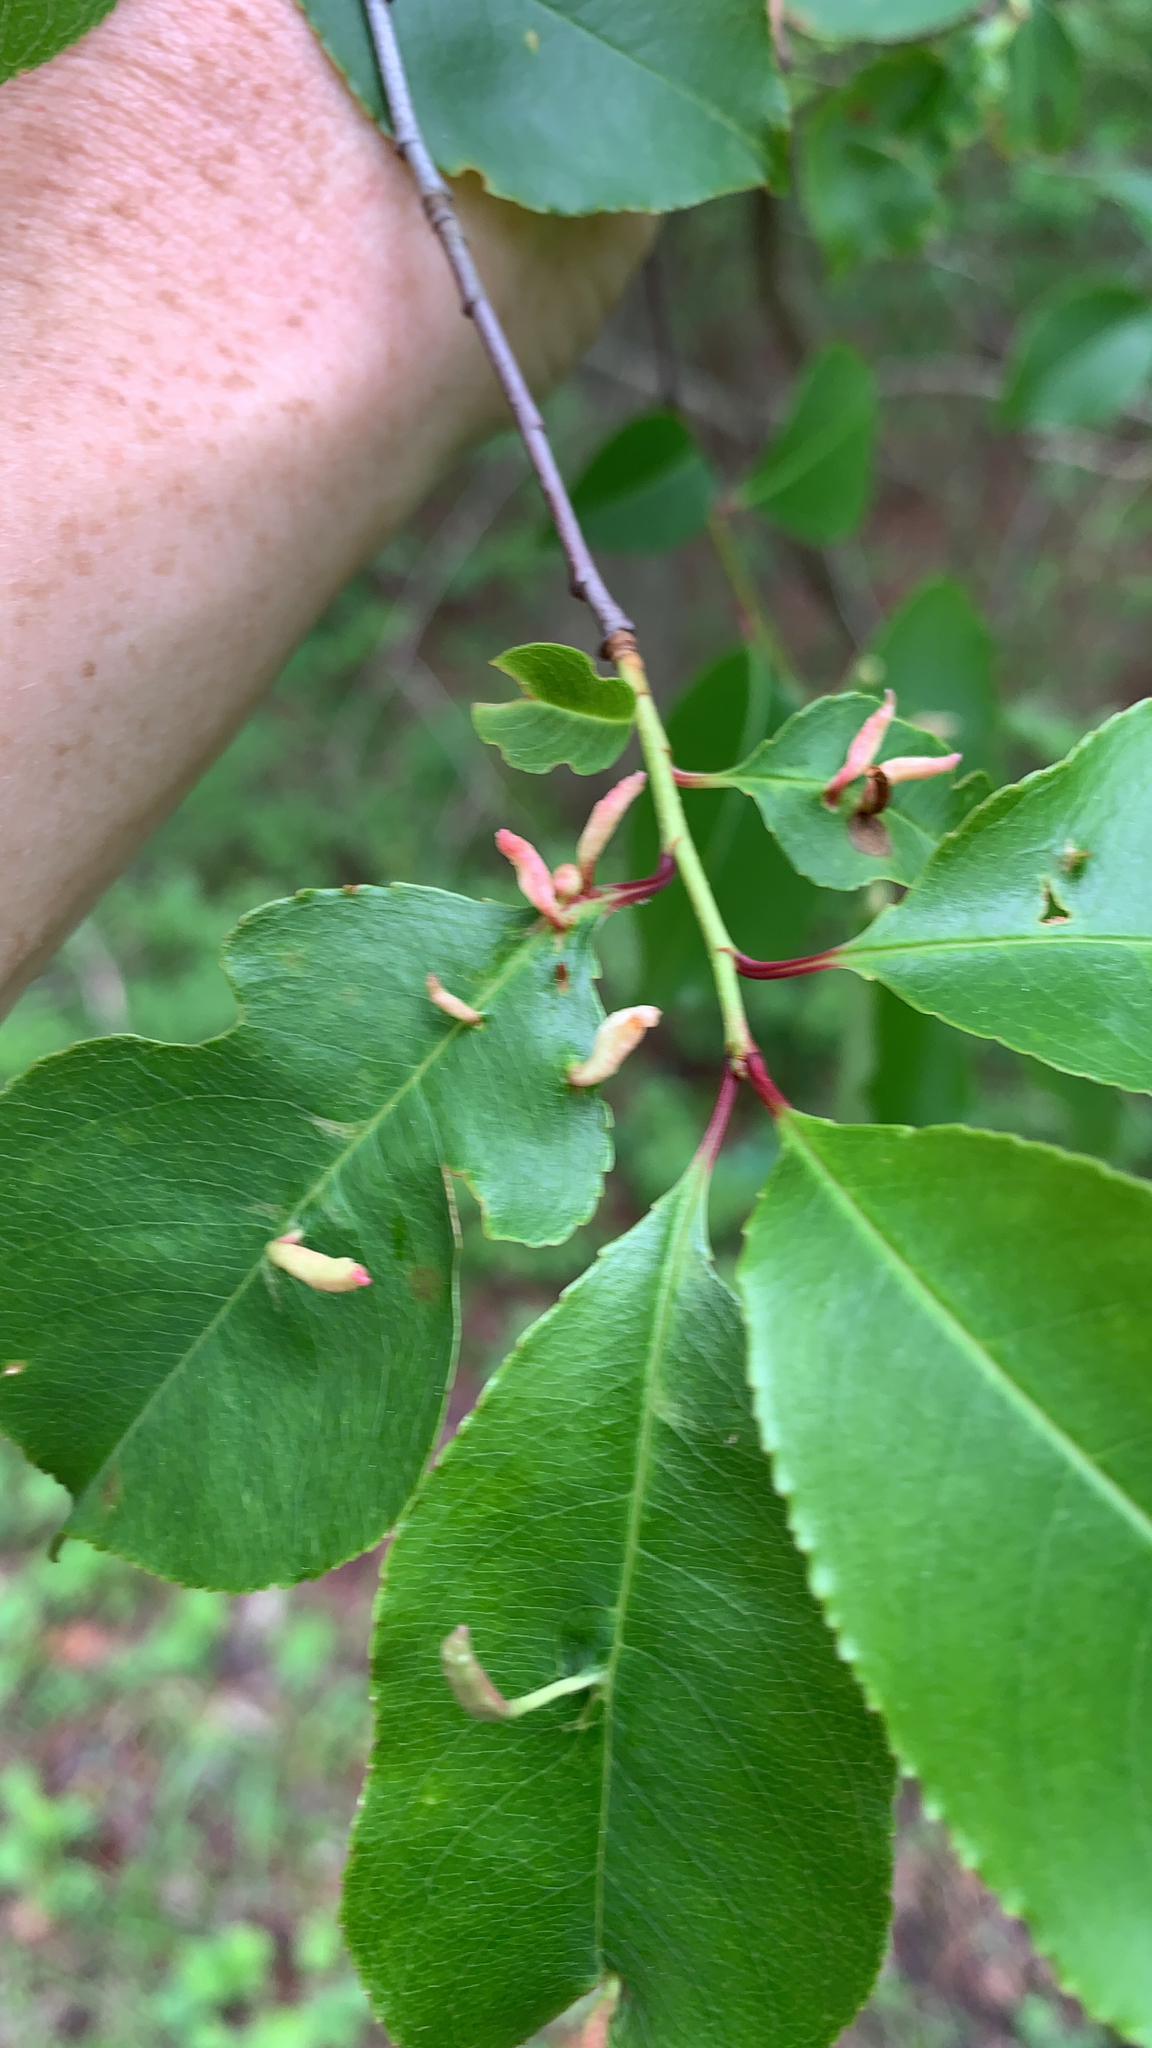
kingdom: Animalia
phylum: Arthropoda
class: Arachnida
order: Trombidiformes
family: Eriophyidae
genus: Eriophyes
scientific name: Eriophyes
